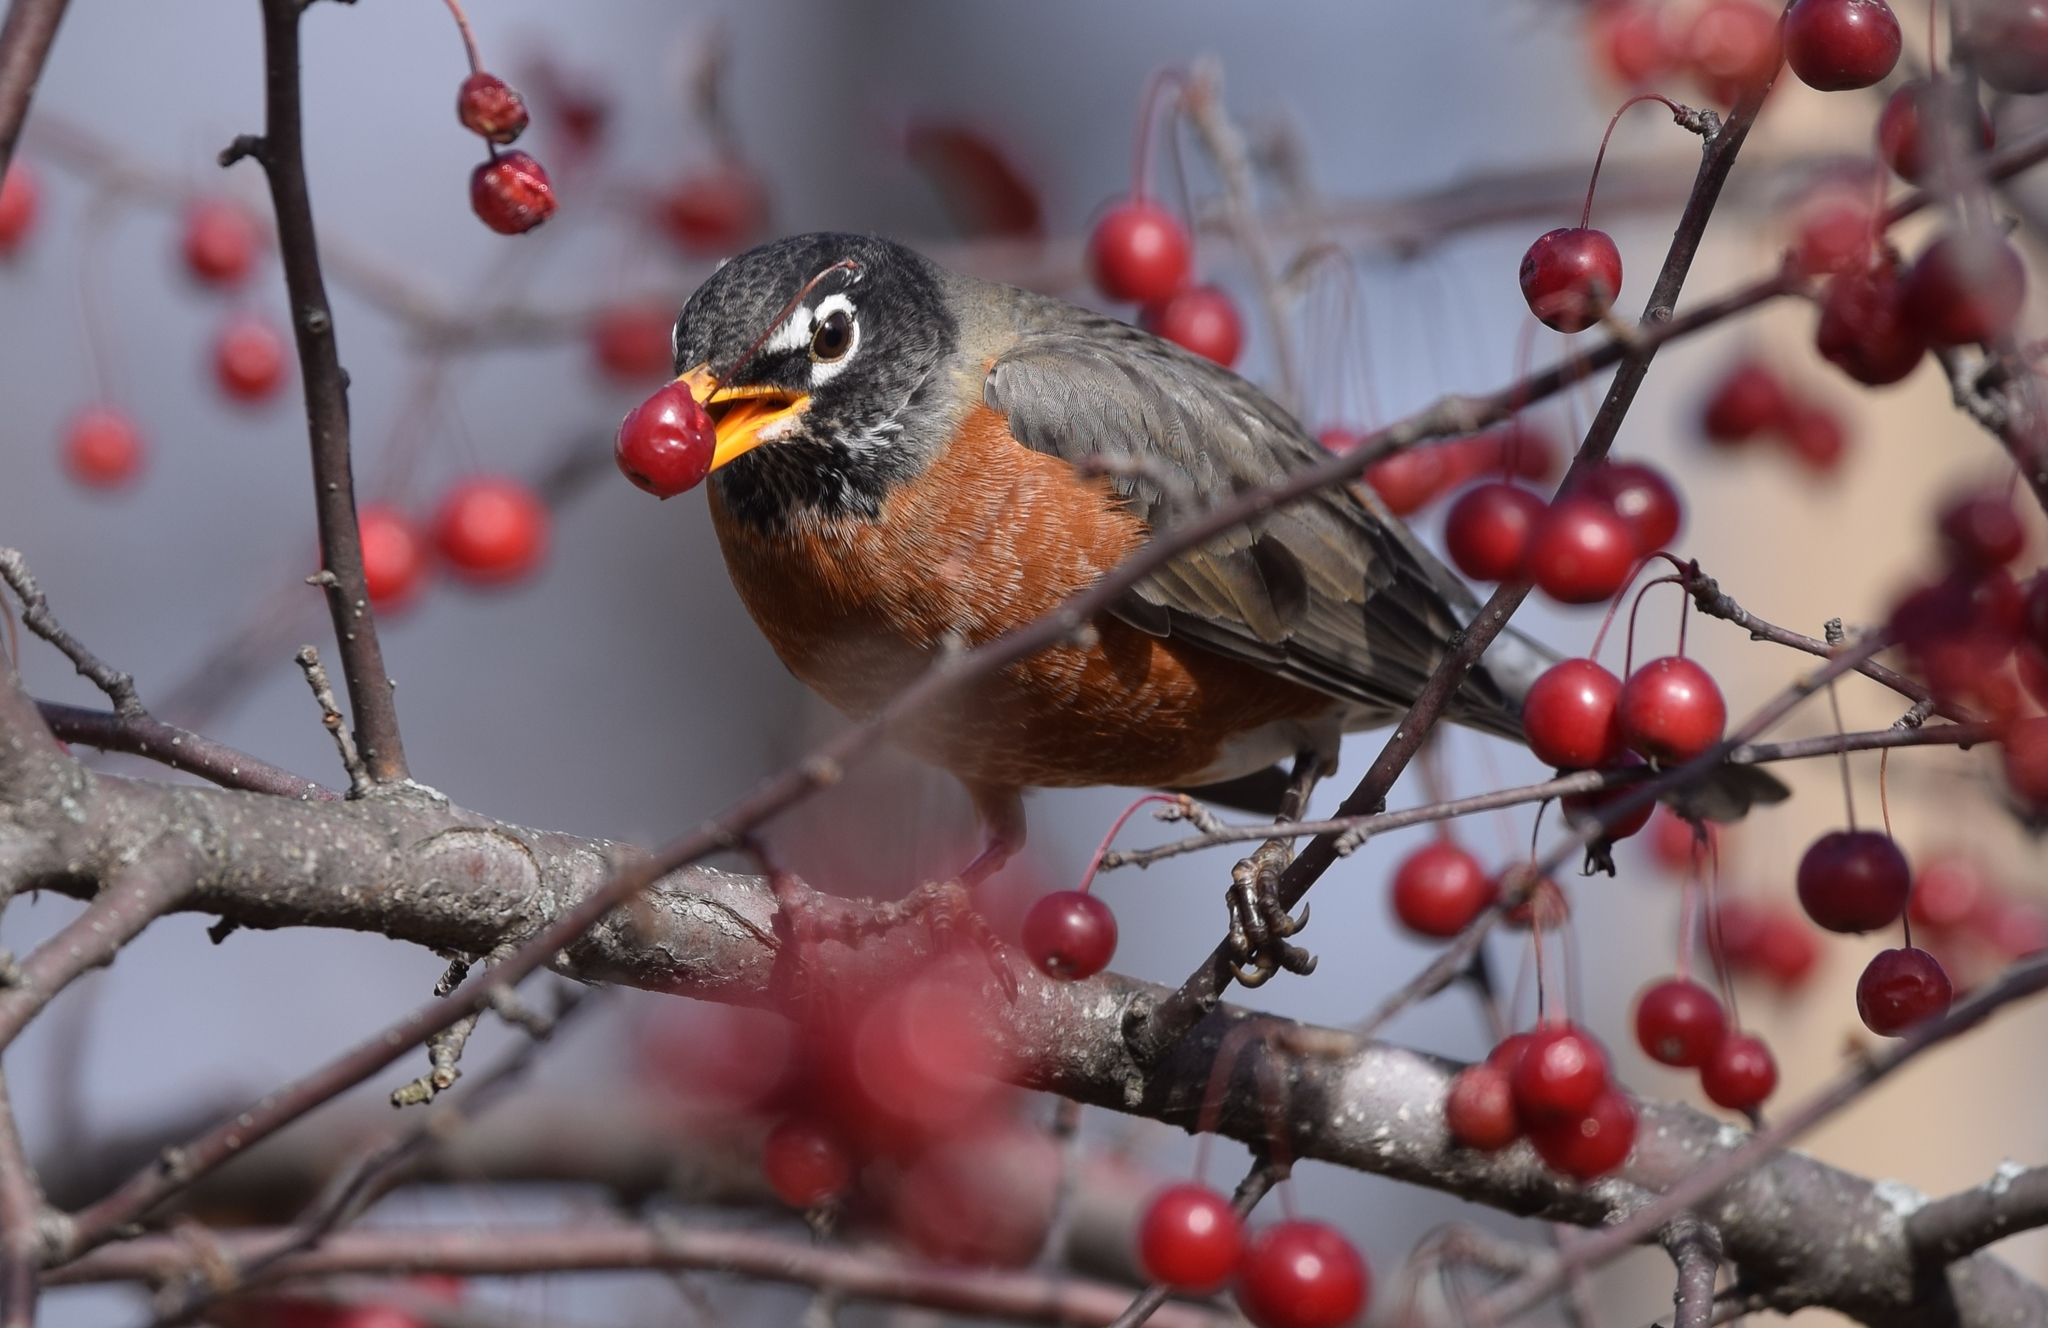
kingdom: Animalia
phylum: Chordata
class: Aves
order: Passeriformes
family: Turdidae
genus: Turdus
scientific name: Turdus migratorius
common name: American robin
